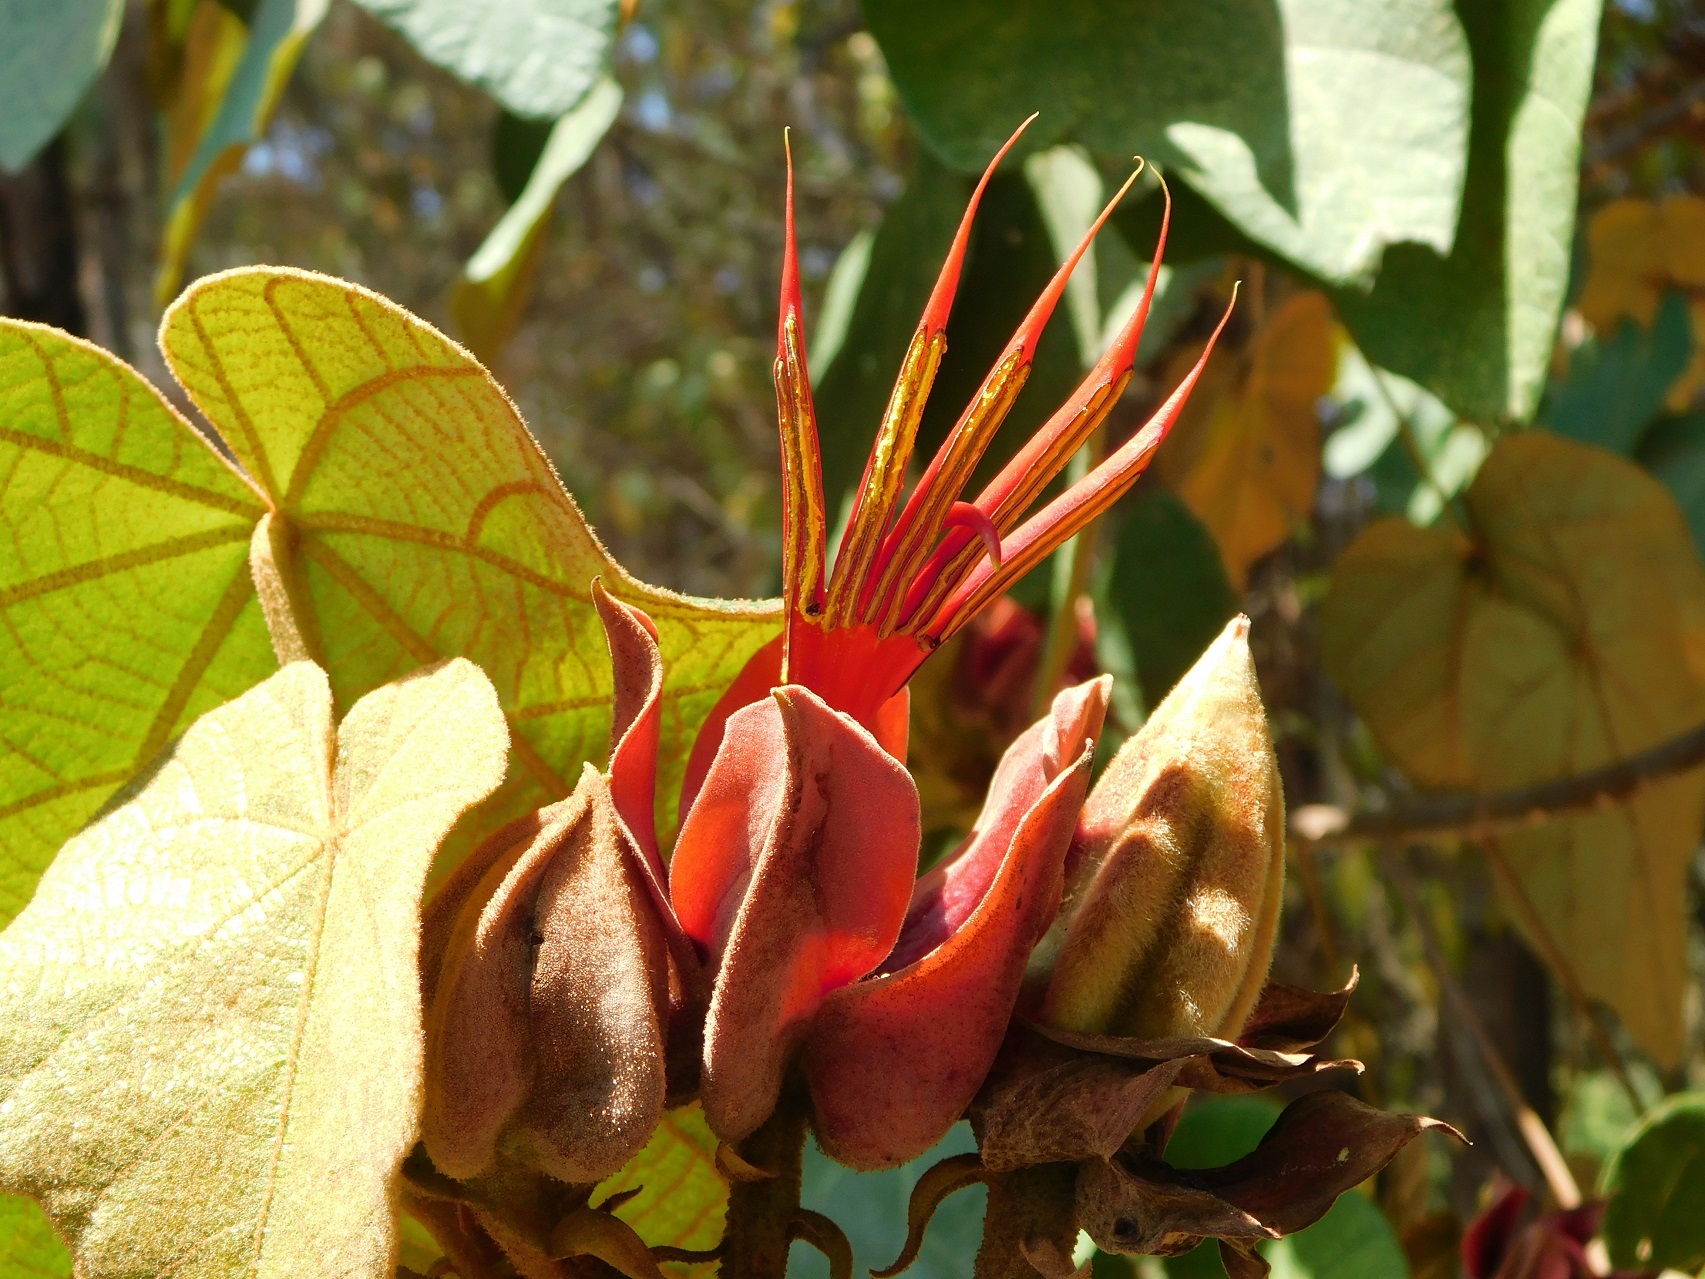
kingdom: Plantae
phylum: Tracheophyta
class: Magnoliopsida
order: Malvales
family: Malvaceae
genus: Chiranthodendron
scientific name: Chiranthodendron pentadactylon
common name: Mexican-hat-plant
